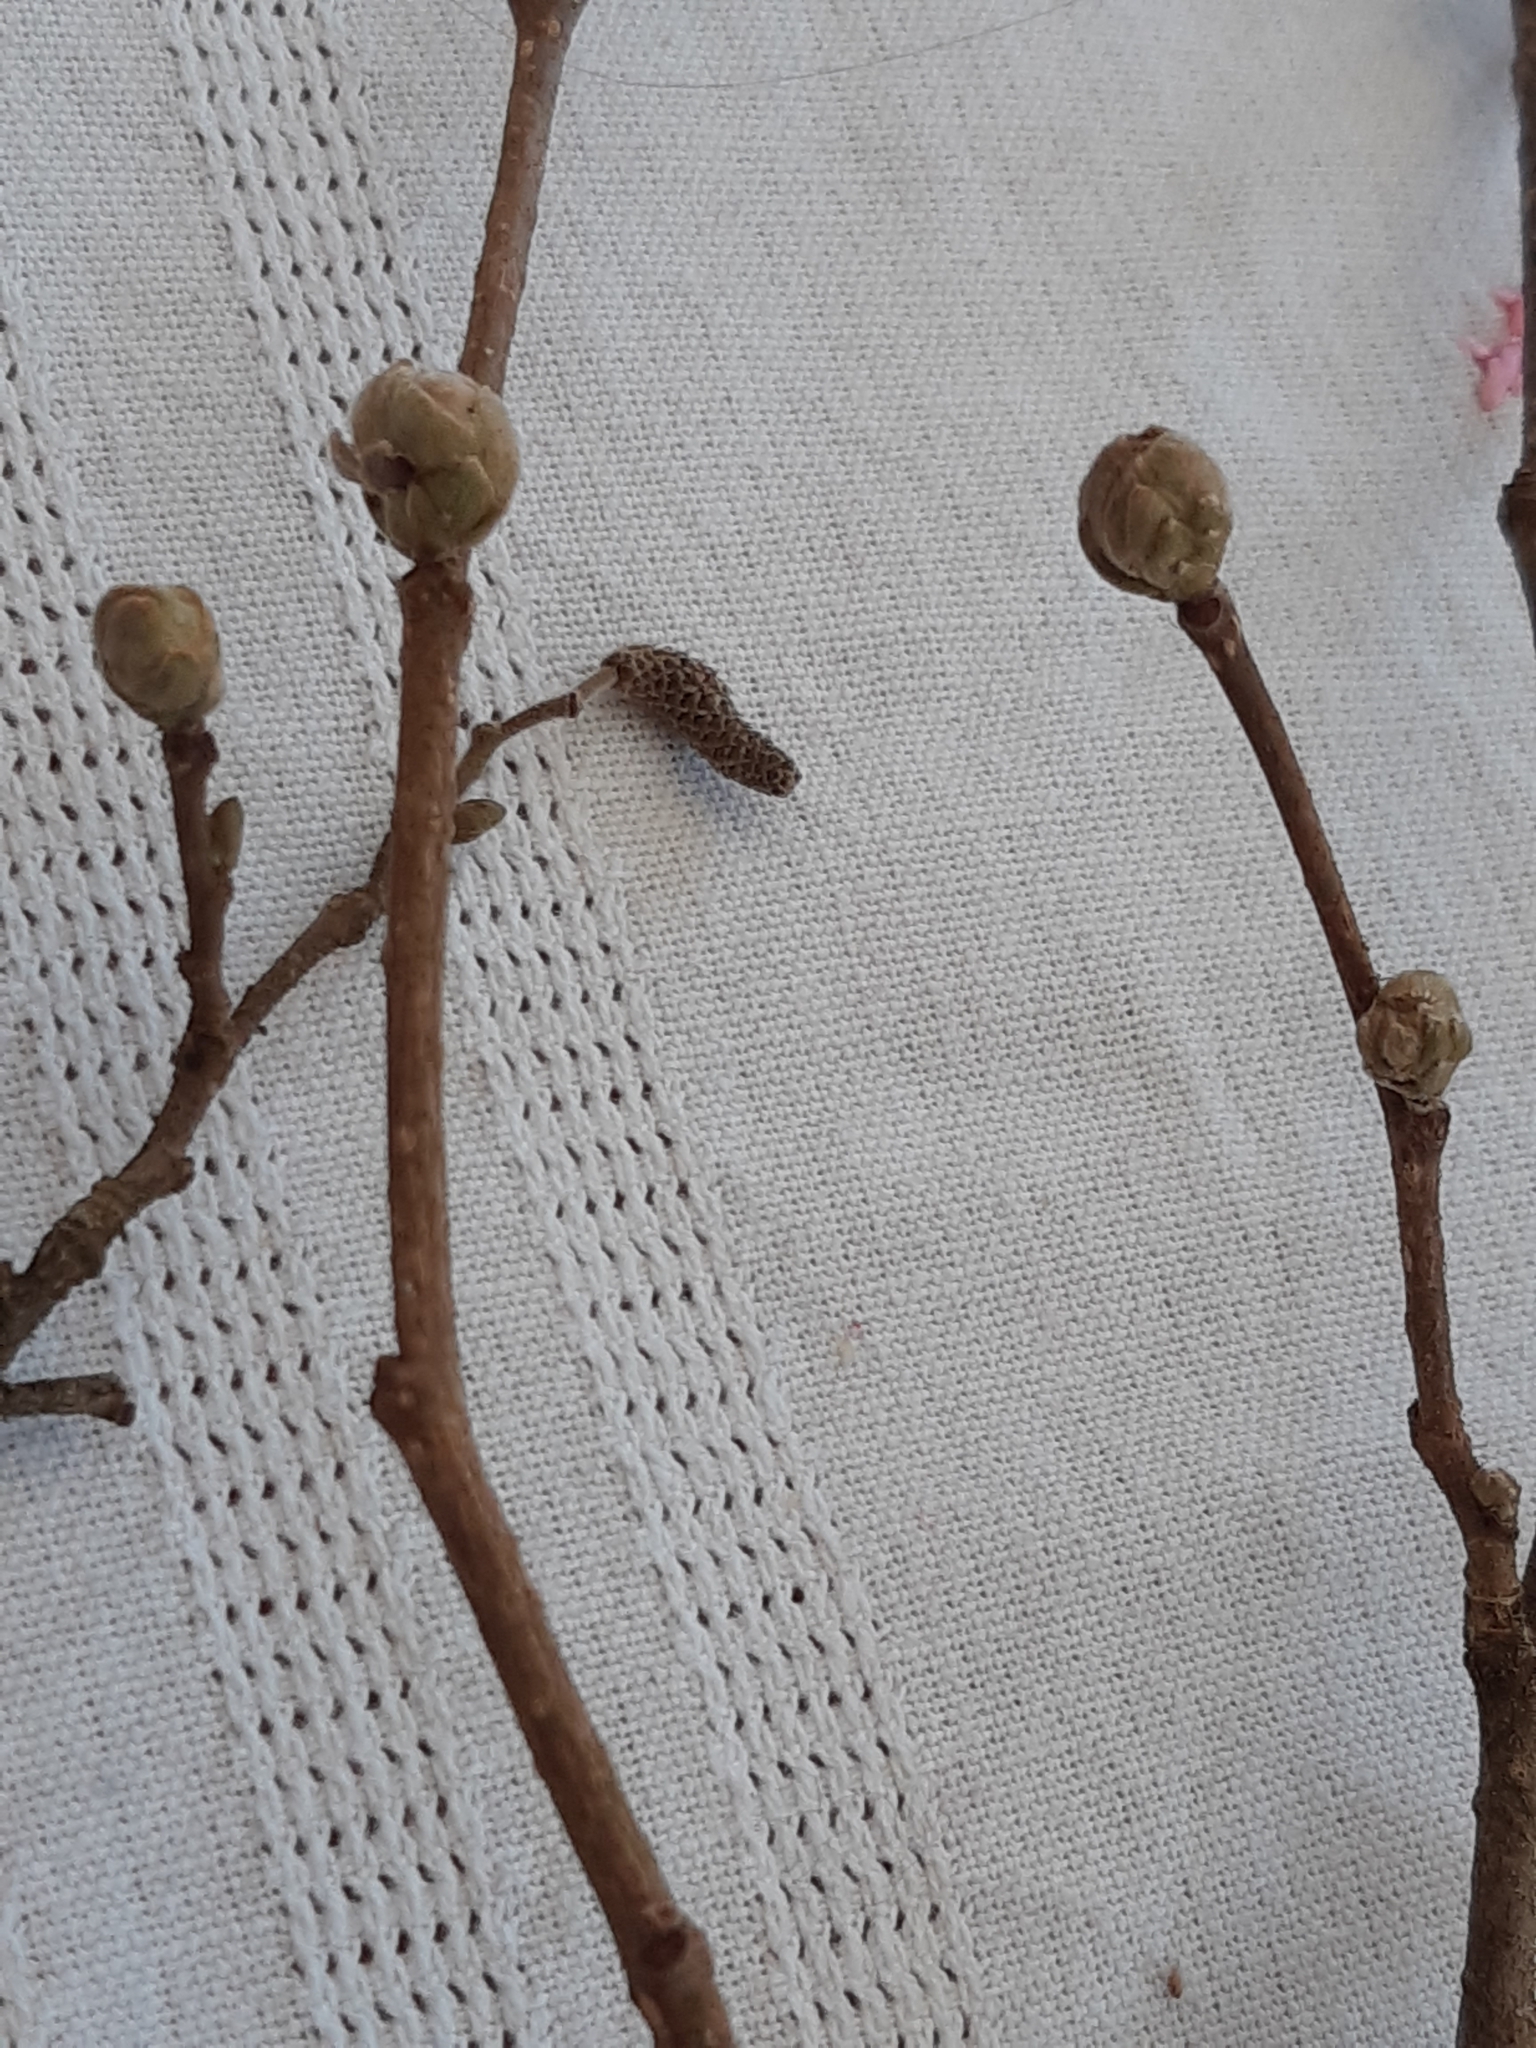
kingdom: Animalia
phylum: Arthropoda
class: Arachnida
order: Trombidiformes
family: Phytoptidae
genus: Phytoptus
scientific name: Phytoptus avellanae
